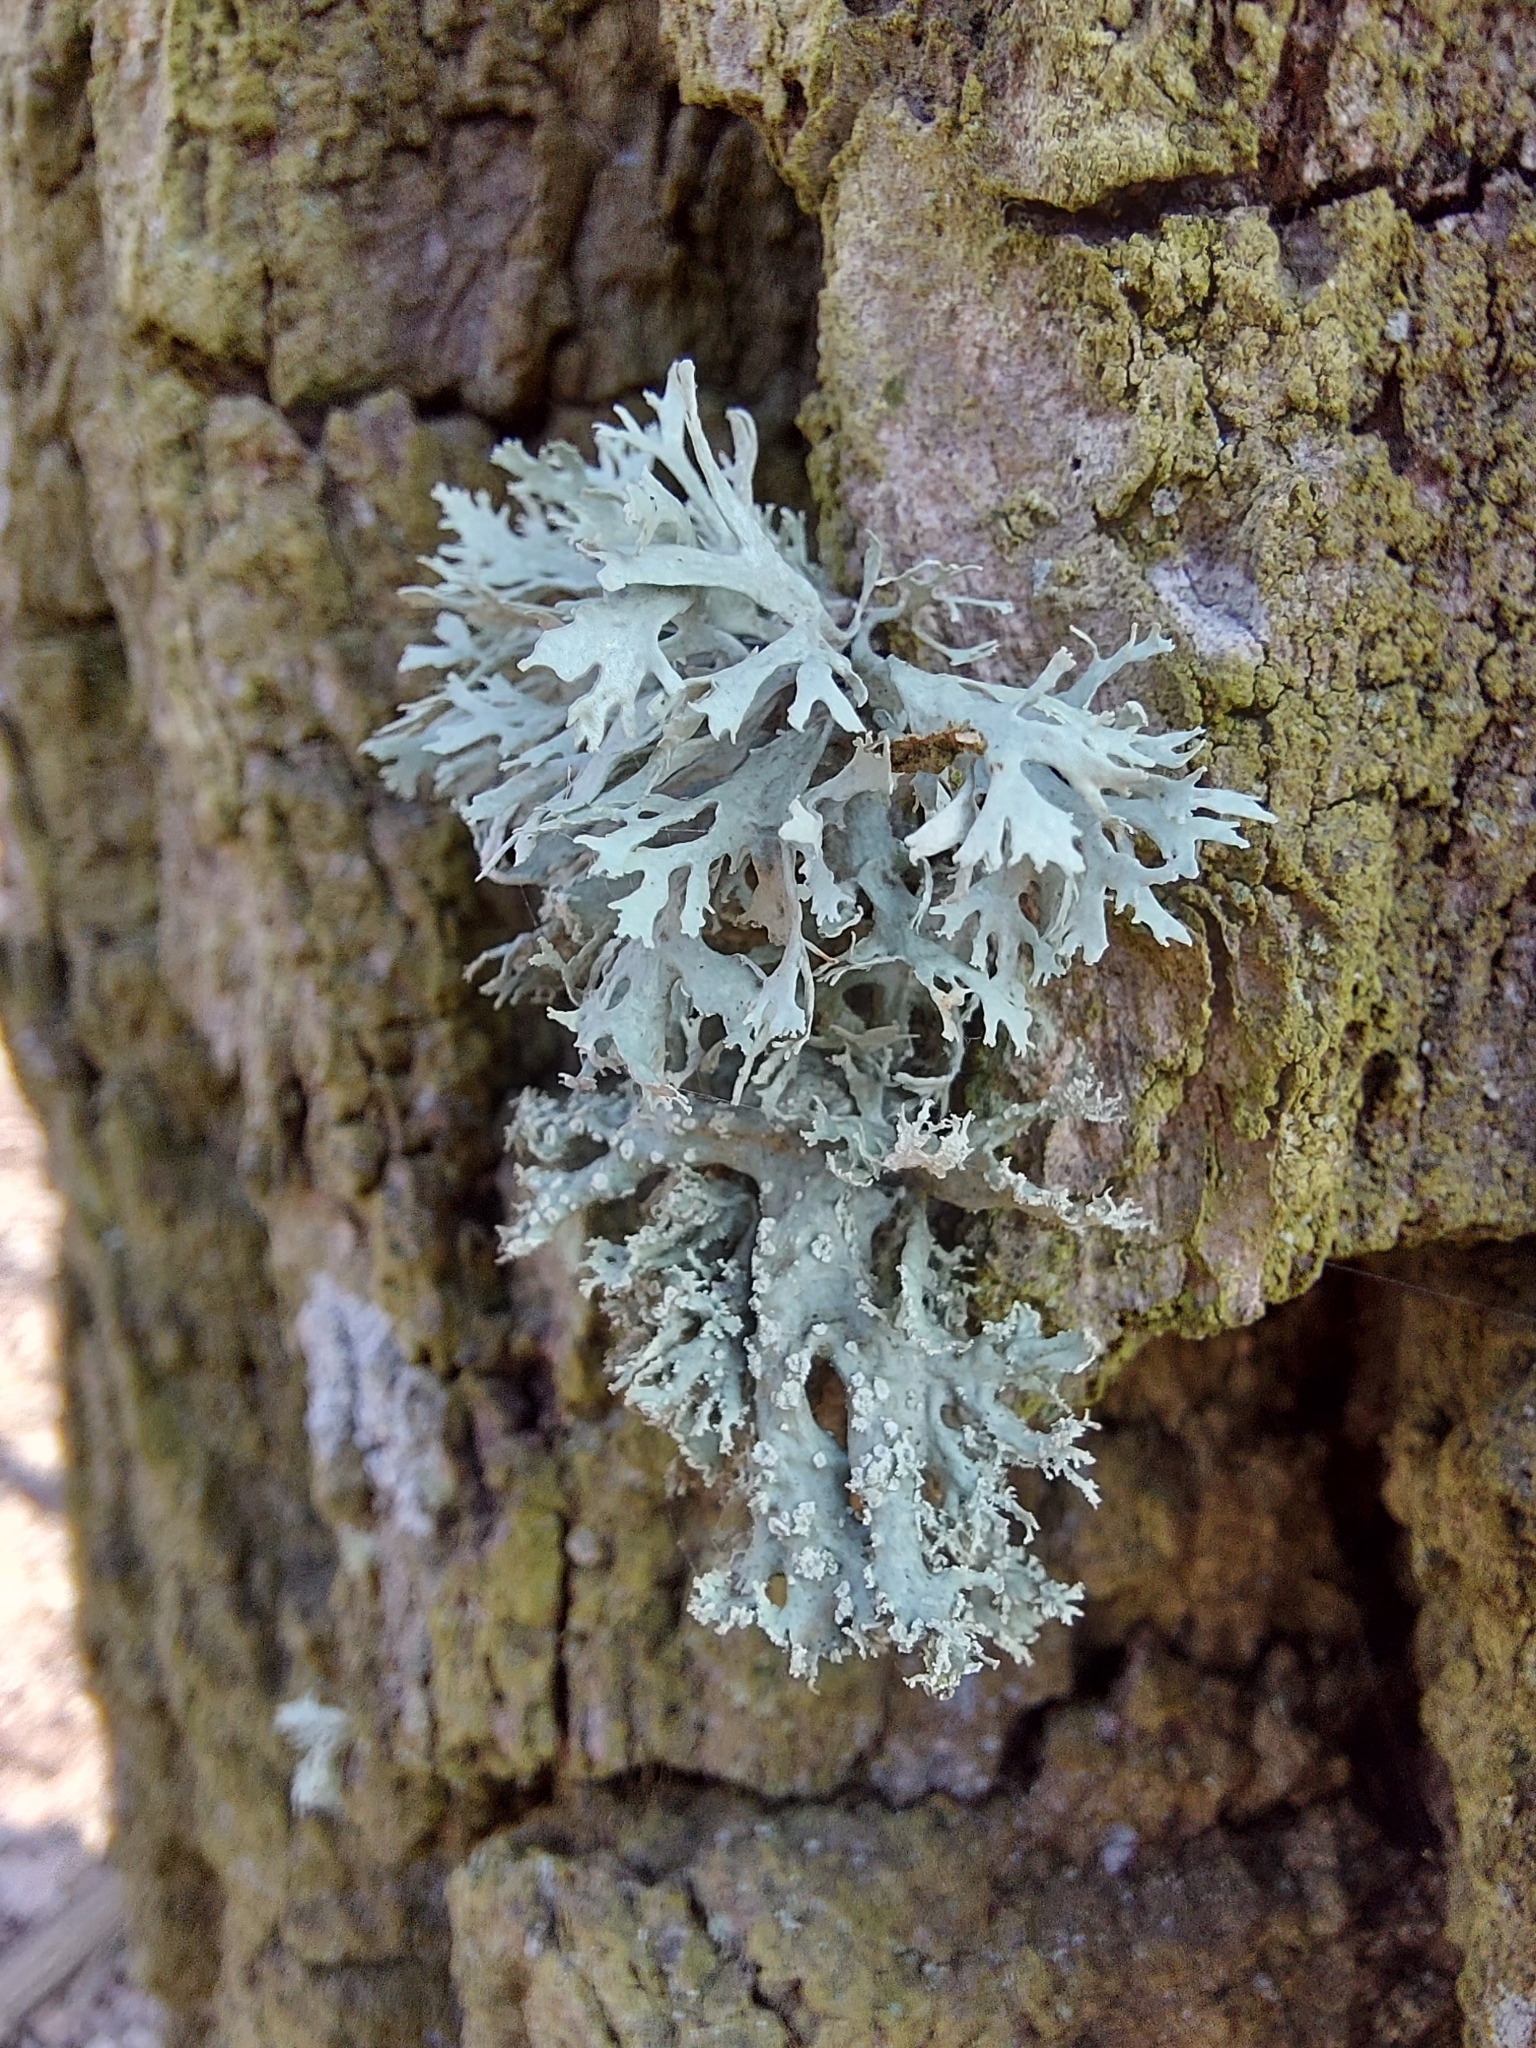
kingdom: Fungi
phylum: Ascomycota
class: Lecanoromycetes
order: Lecanorales
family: Parmeliaceae
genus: Evernia
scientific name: Evernia prunastri
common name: Oak moss
